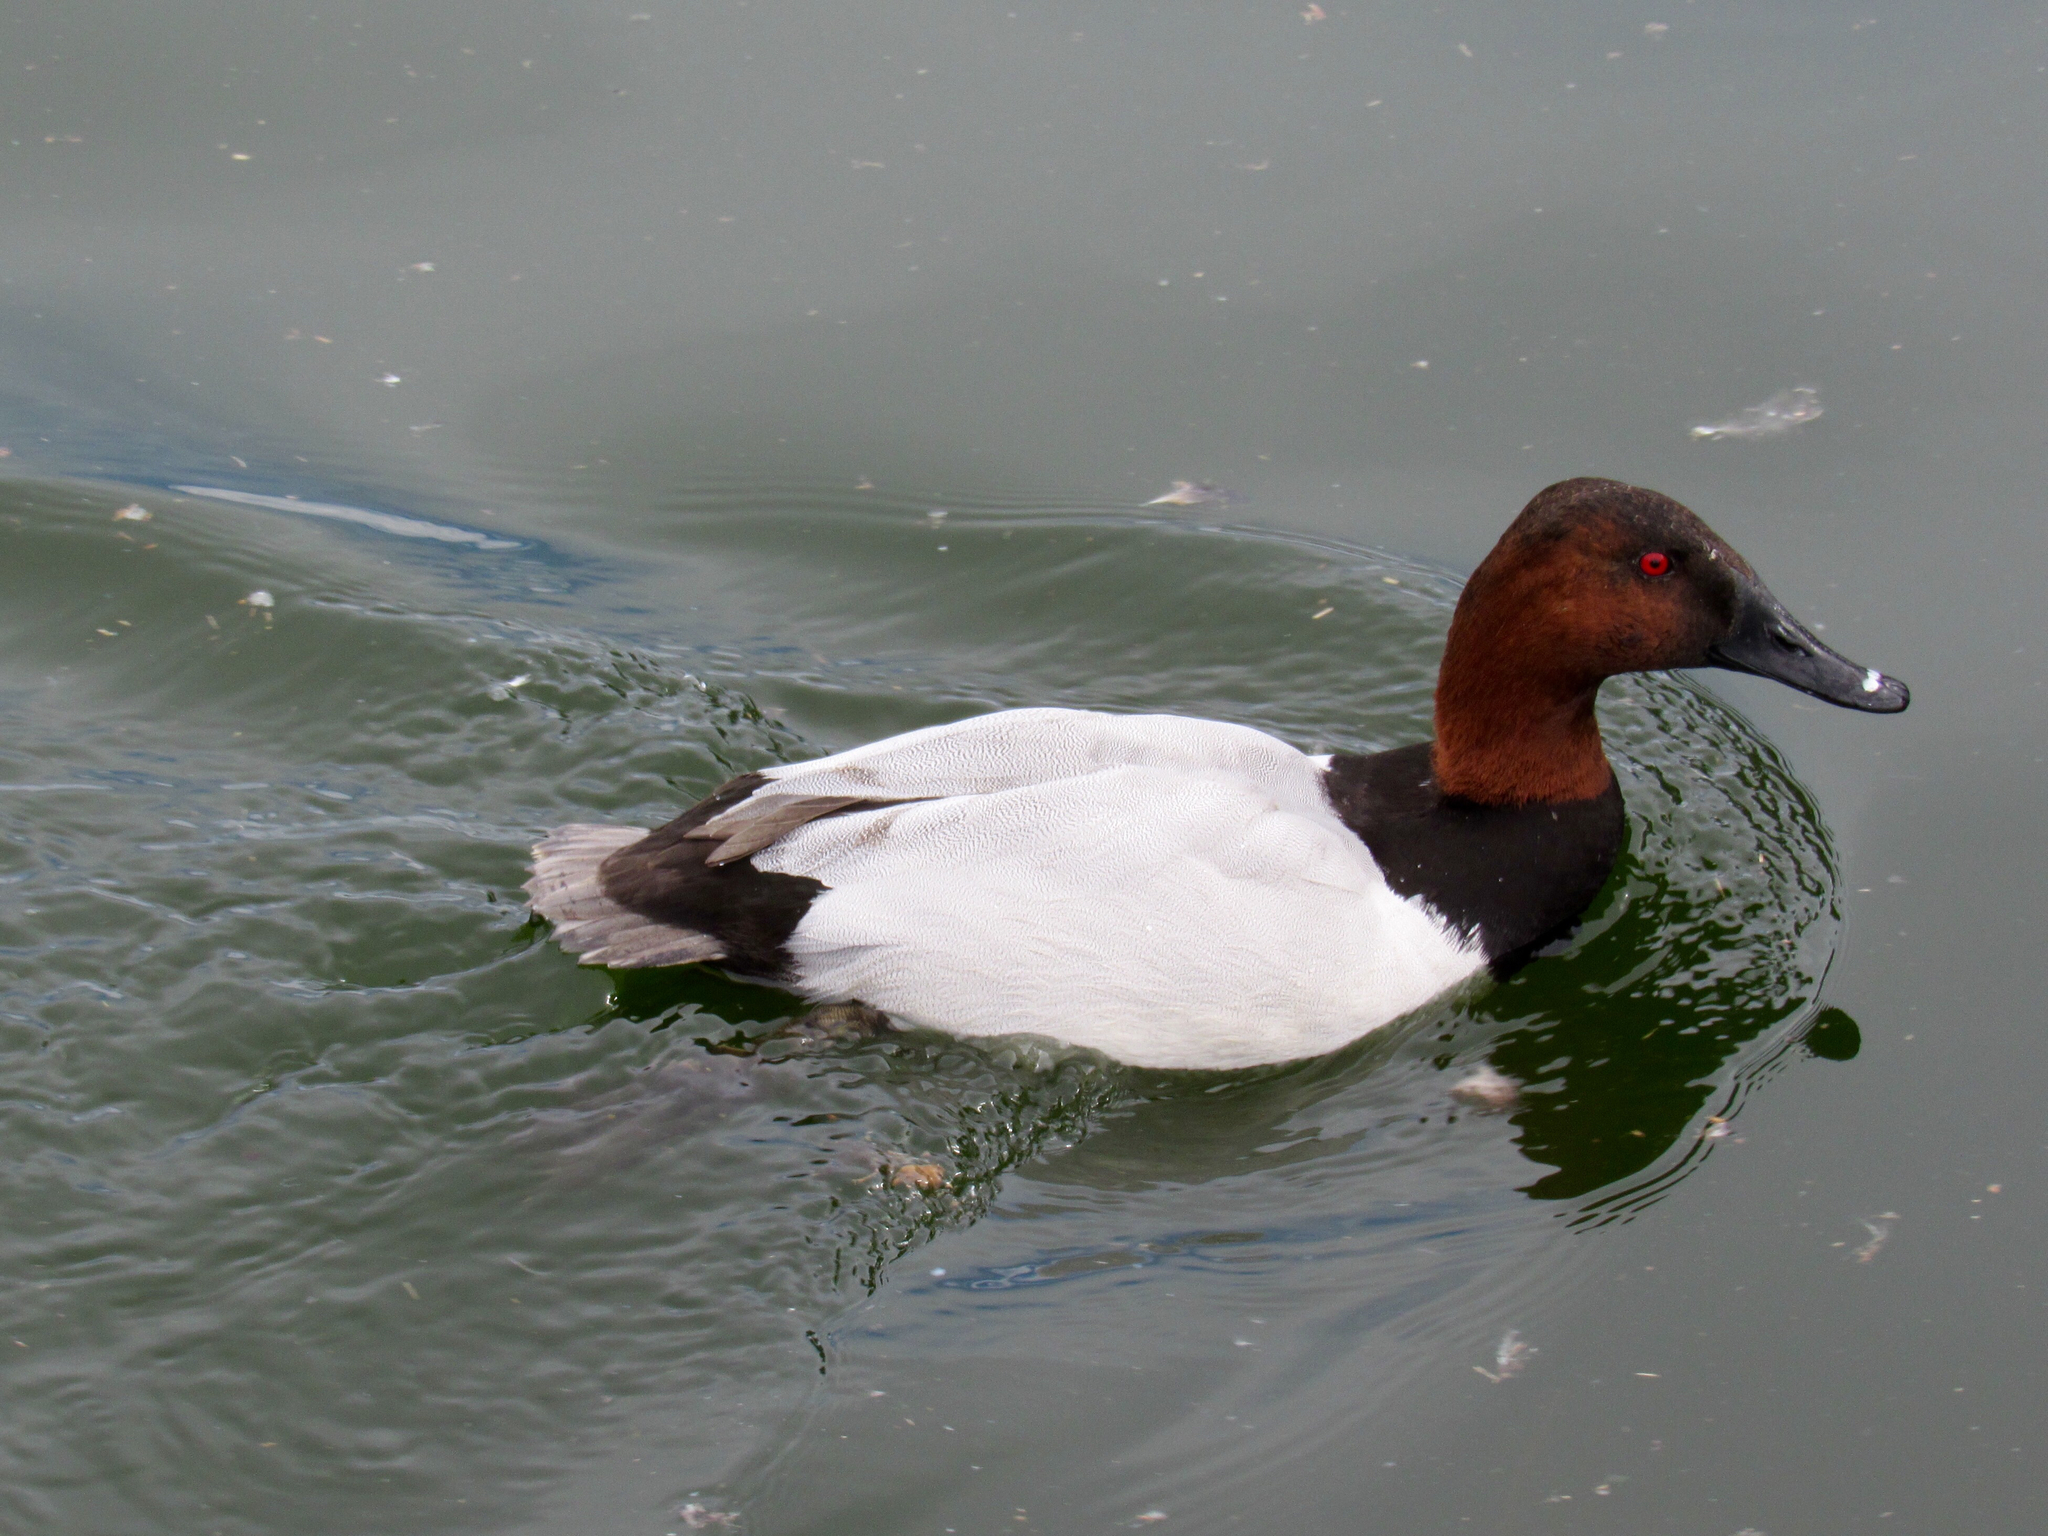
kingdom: Animalia
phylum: Chordata
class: Aves
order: Anseriformes
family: Anatidae
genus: Aythya
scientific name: Aythya valisineria
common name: Canvasback
